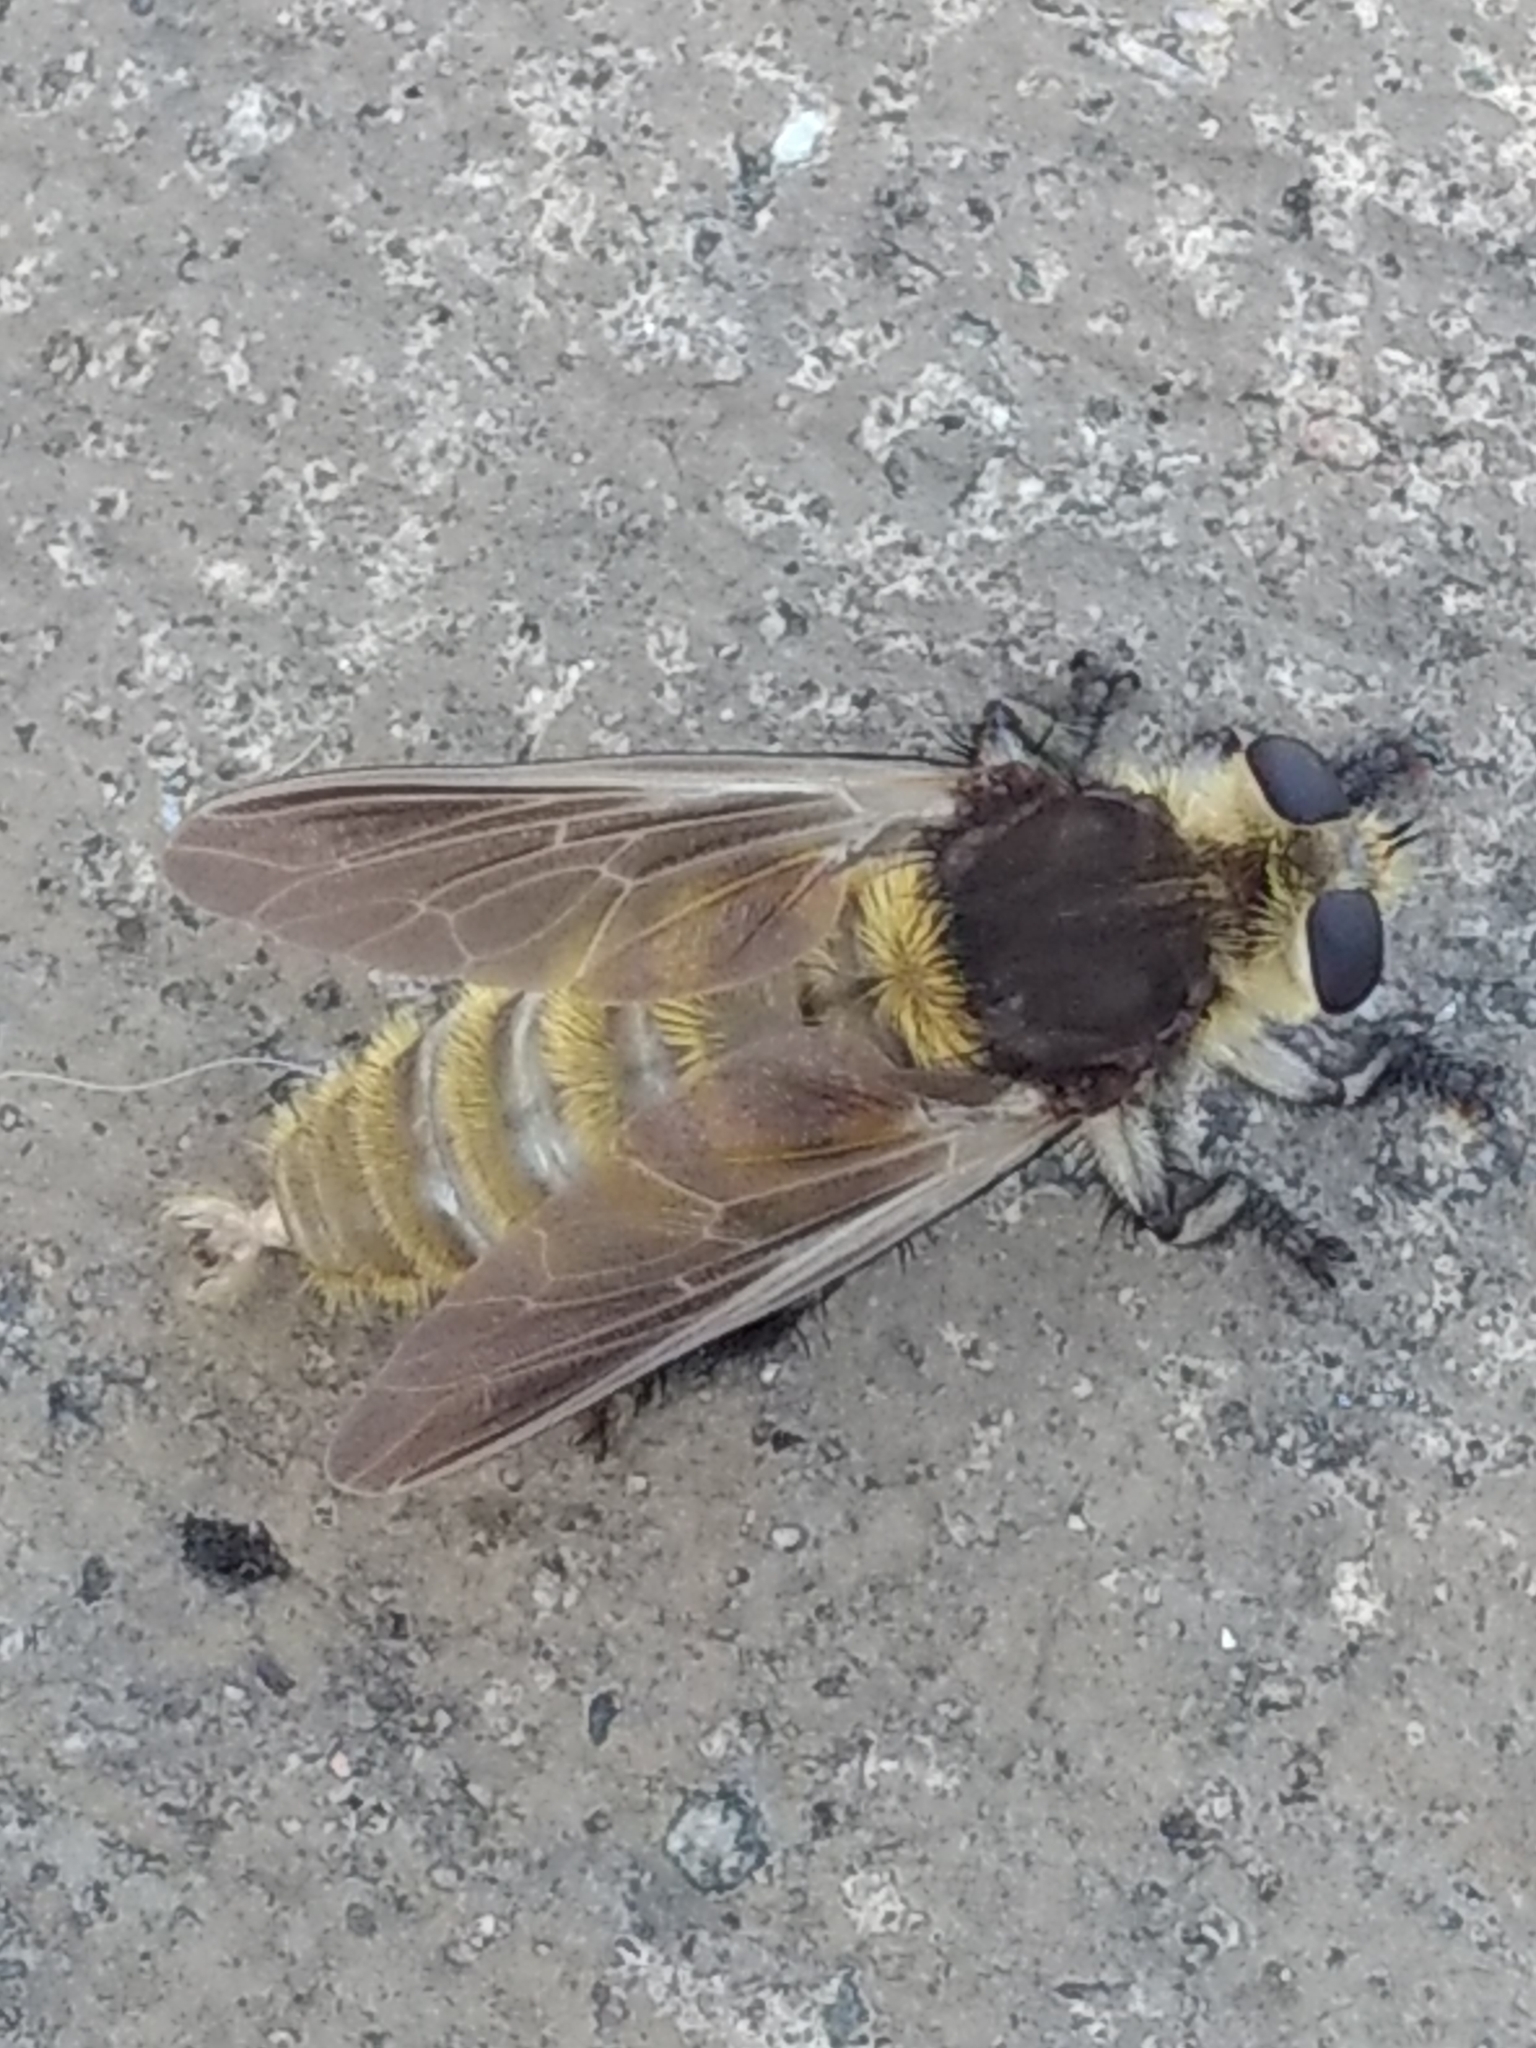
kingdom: Animalia
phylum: Arthropoda
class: Insecta
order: Diptera
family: Asilidae
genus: Mallophora
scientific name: Mallophora fautrix
